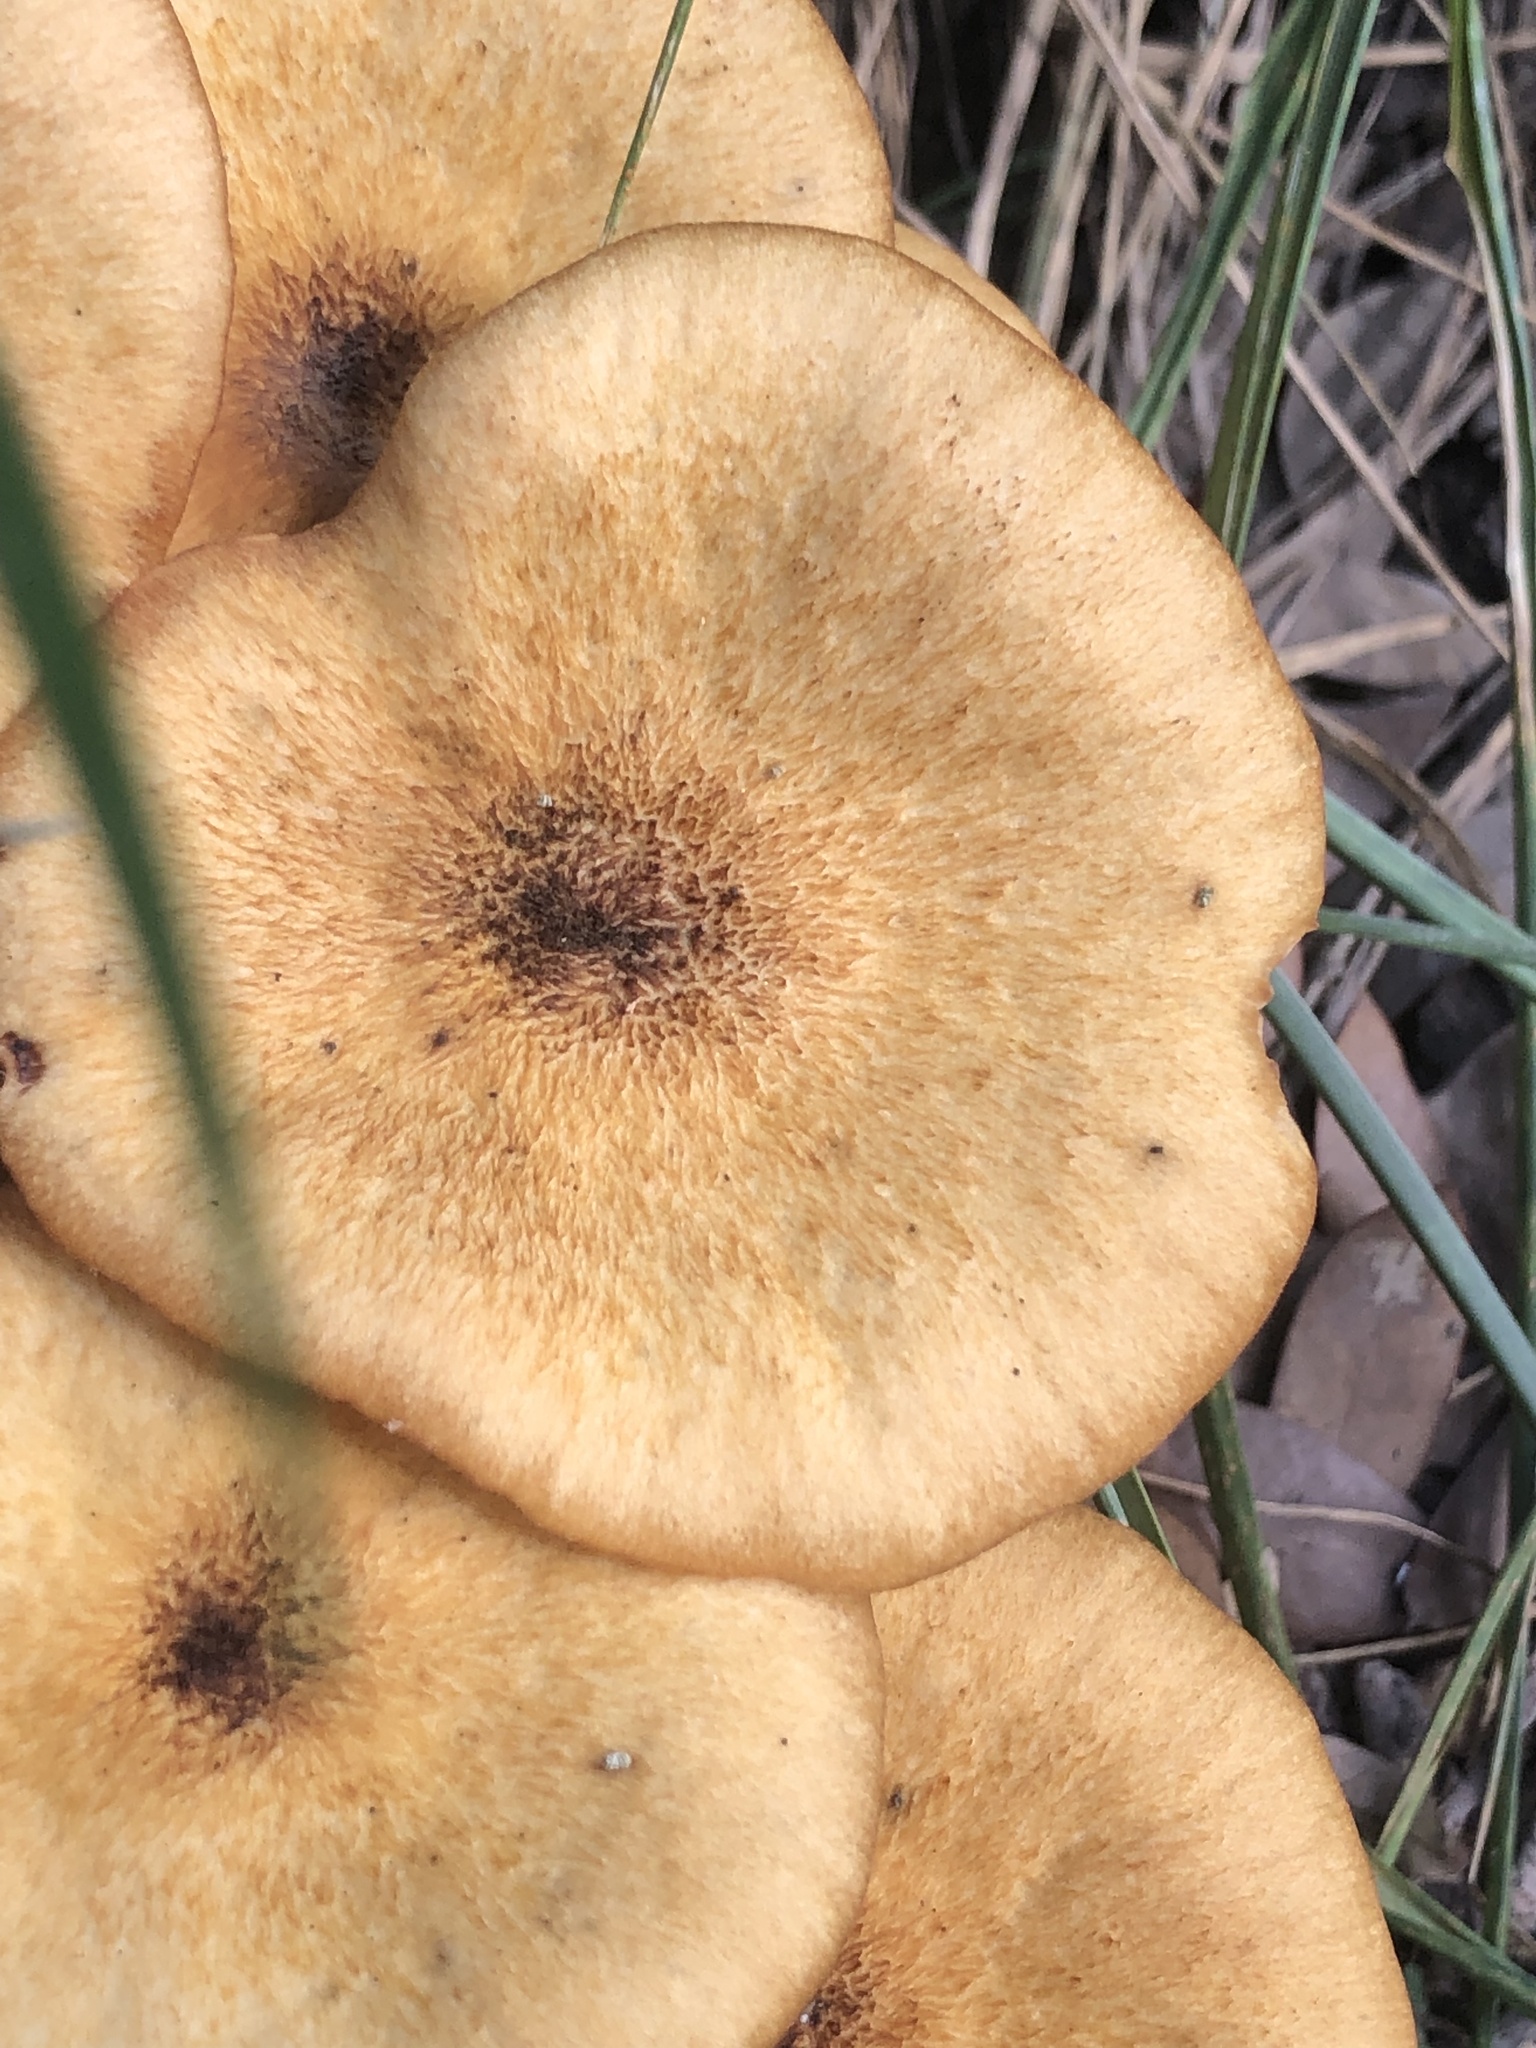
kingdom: Fungi
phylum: Basidiomycota
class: Agaricomycetes
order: Agaricales
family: Physalacriaceae
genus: Desarmillaria
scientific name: Desarmillaria caespitosa
